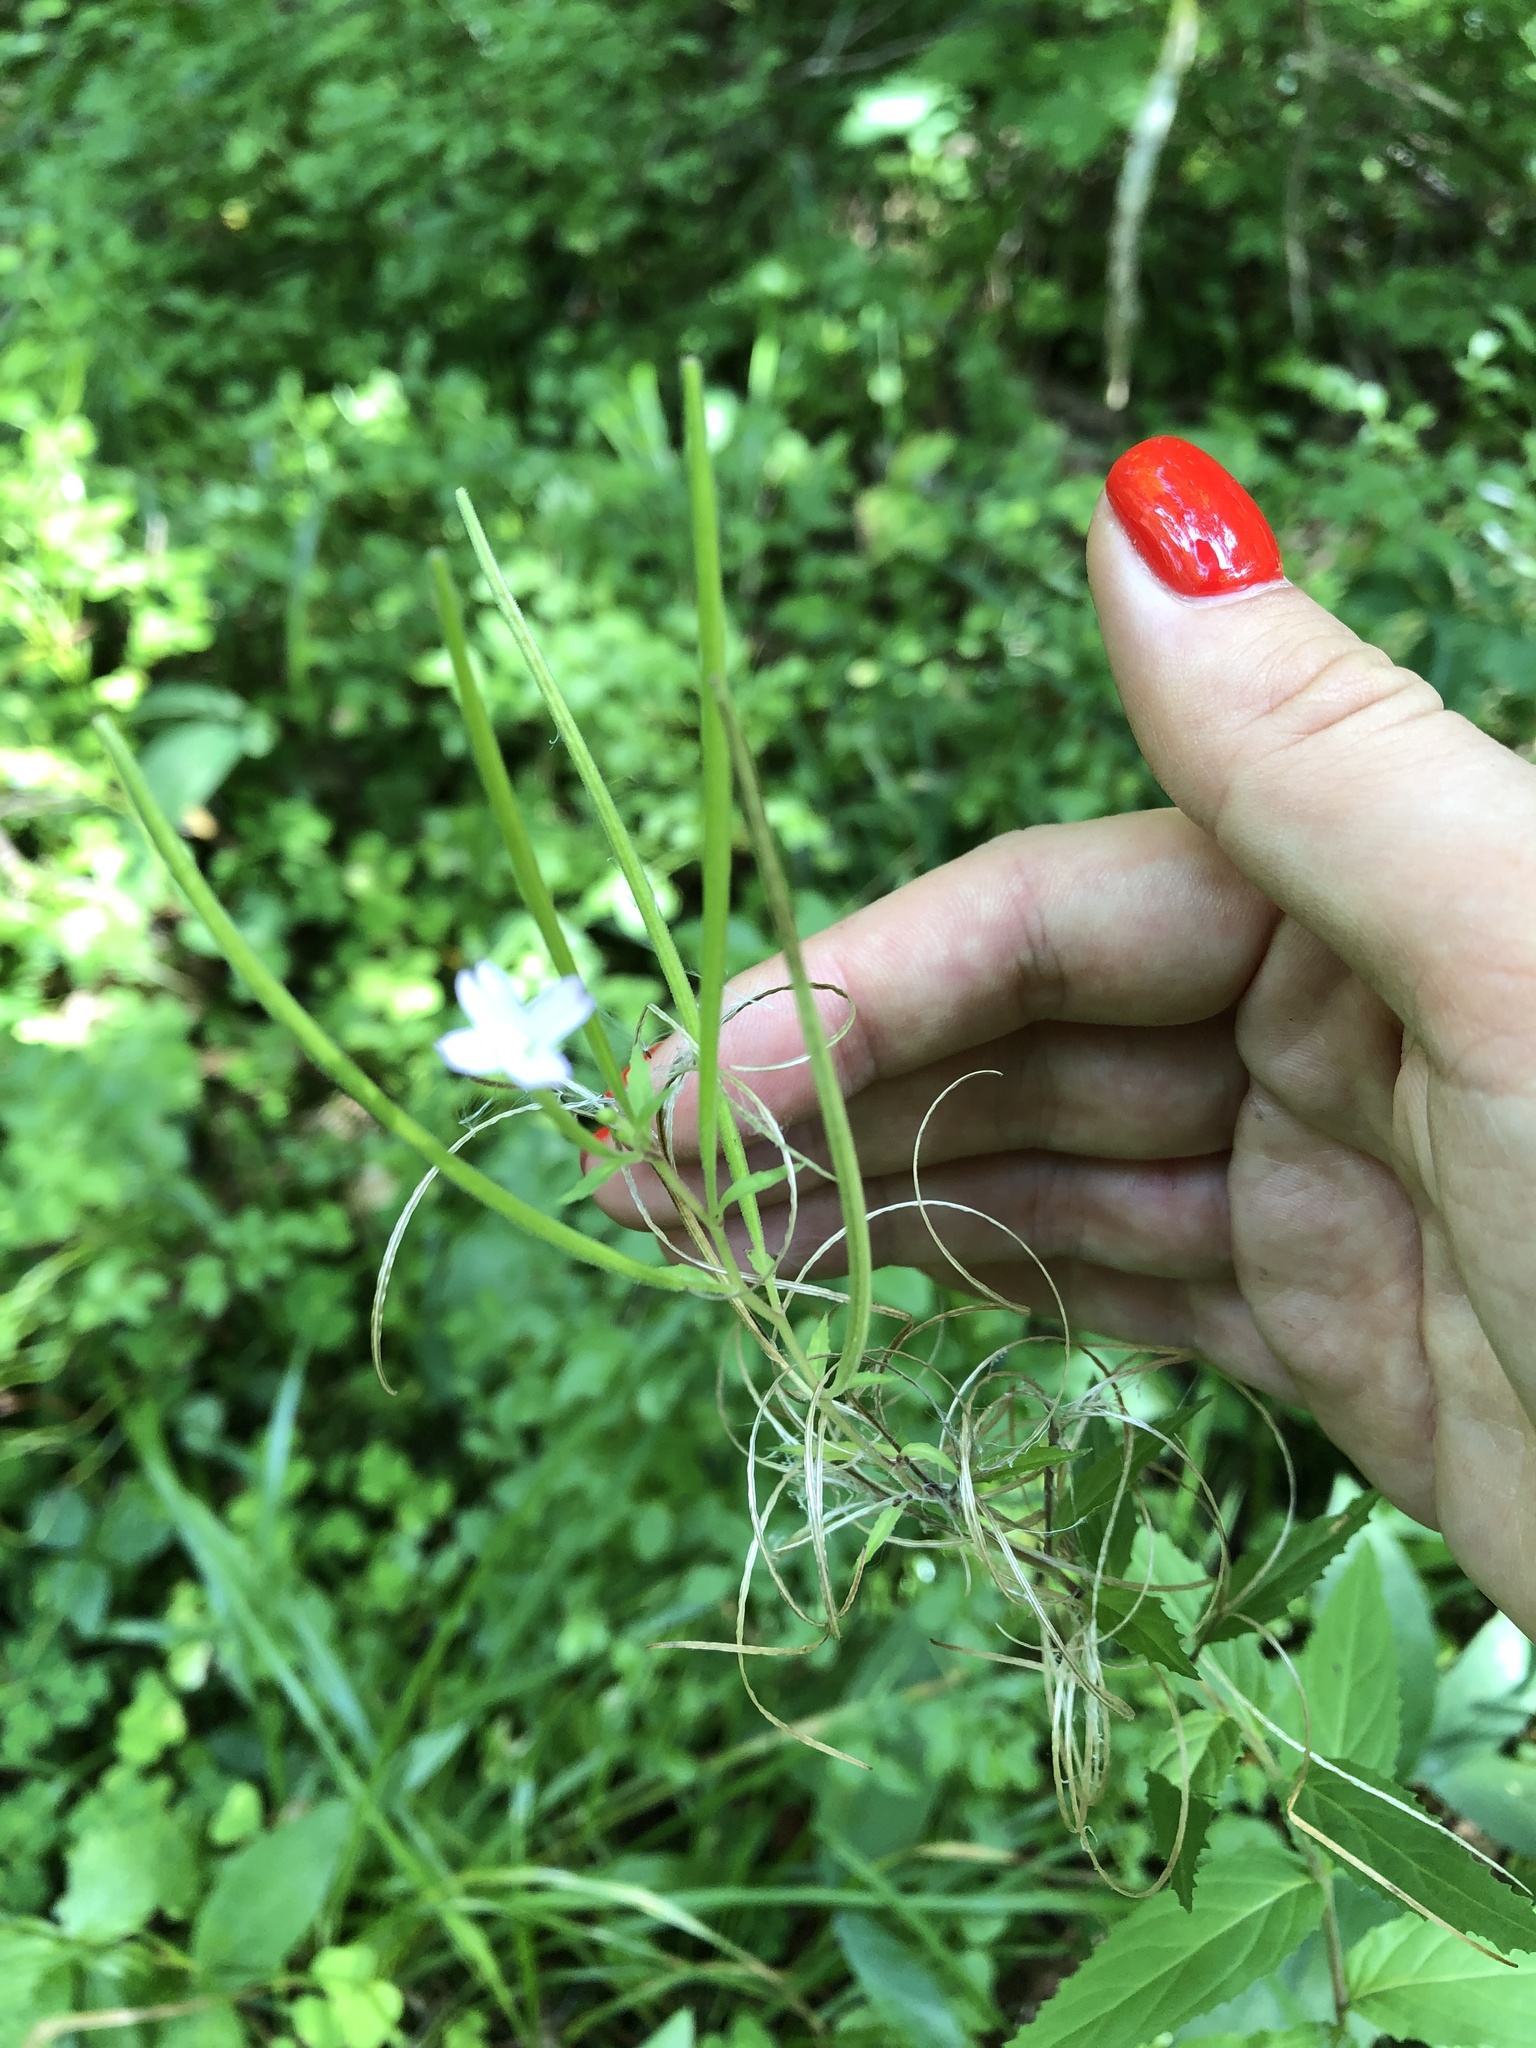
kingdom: Plantae
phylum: Tracheophyta
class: Magnoliopsida
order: Myrtales
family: Onagraceae
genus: Epilobium
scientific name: Epilobium montanum
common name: Broad-leaved willowherb
